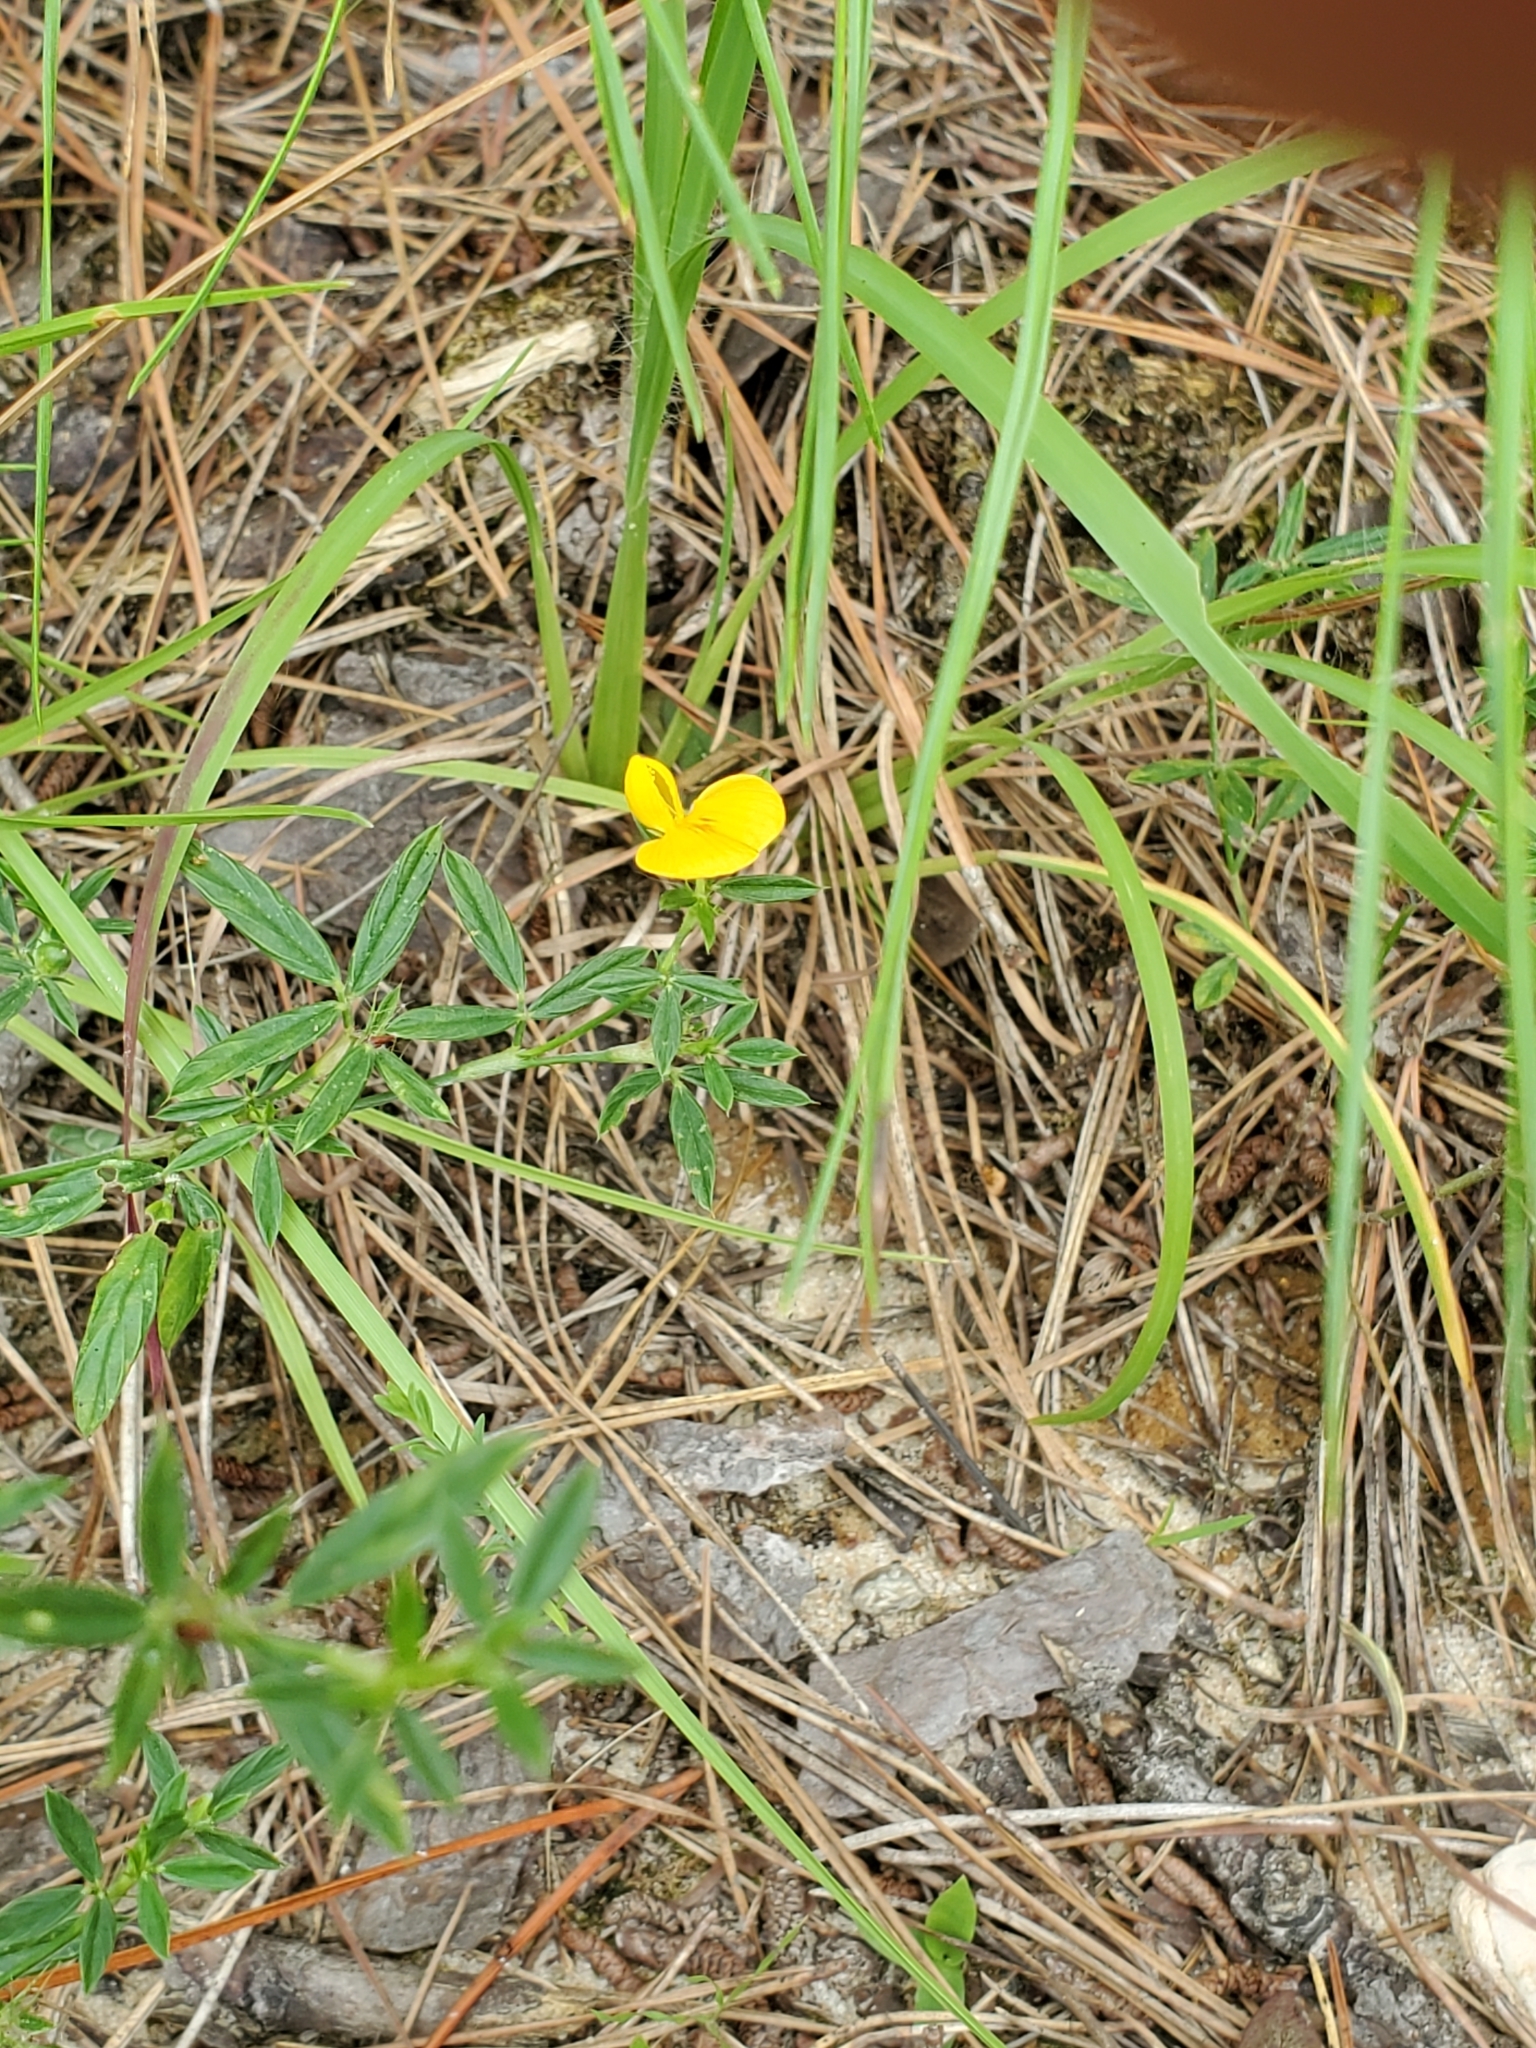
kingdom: Plantae
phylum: Tracheophyta
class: Magnoliopsida
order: Fabales
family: Fabaceae
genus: Stylosanthes
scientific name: Stylosanthes biflora
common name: Two-flower pencil-flower
